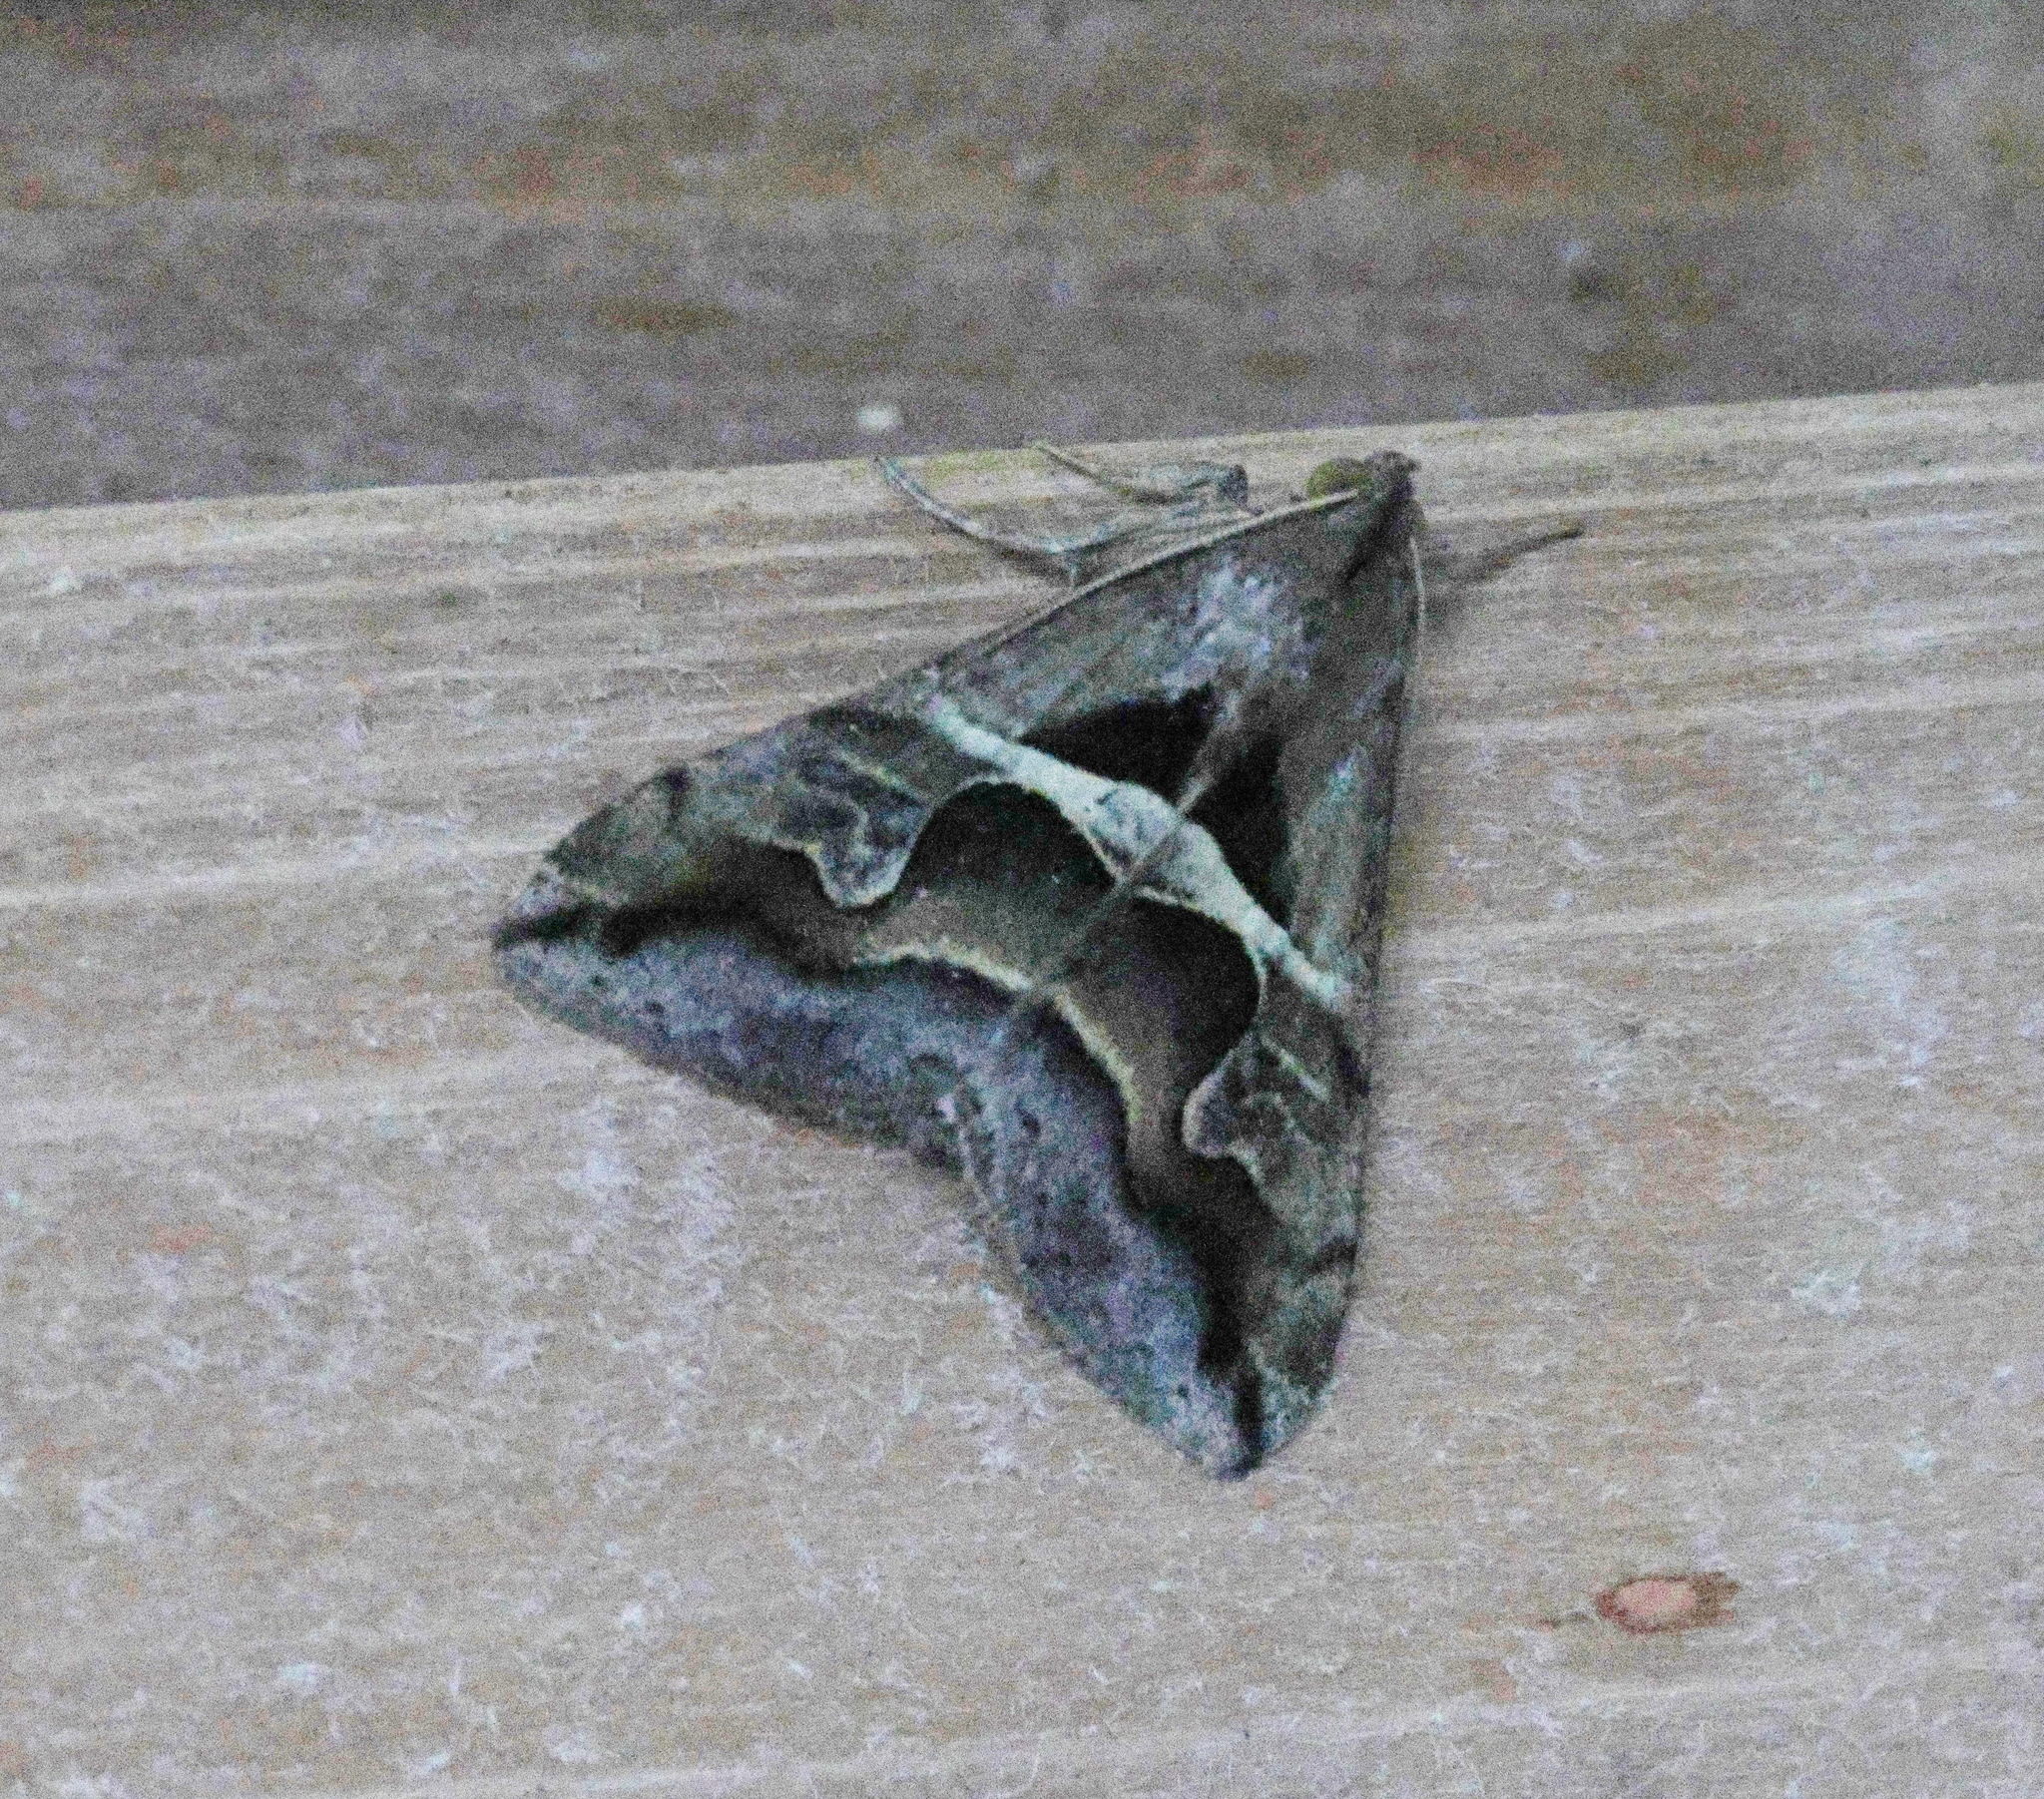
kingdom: Animalia
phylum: Arthropoda
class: Insecta
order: Lepidoptera
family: Erebidae
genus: Melipotis
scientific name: Melipotis cellaris
